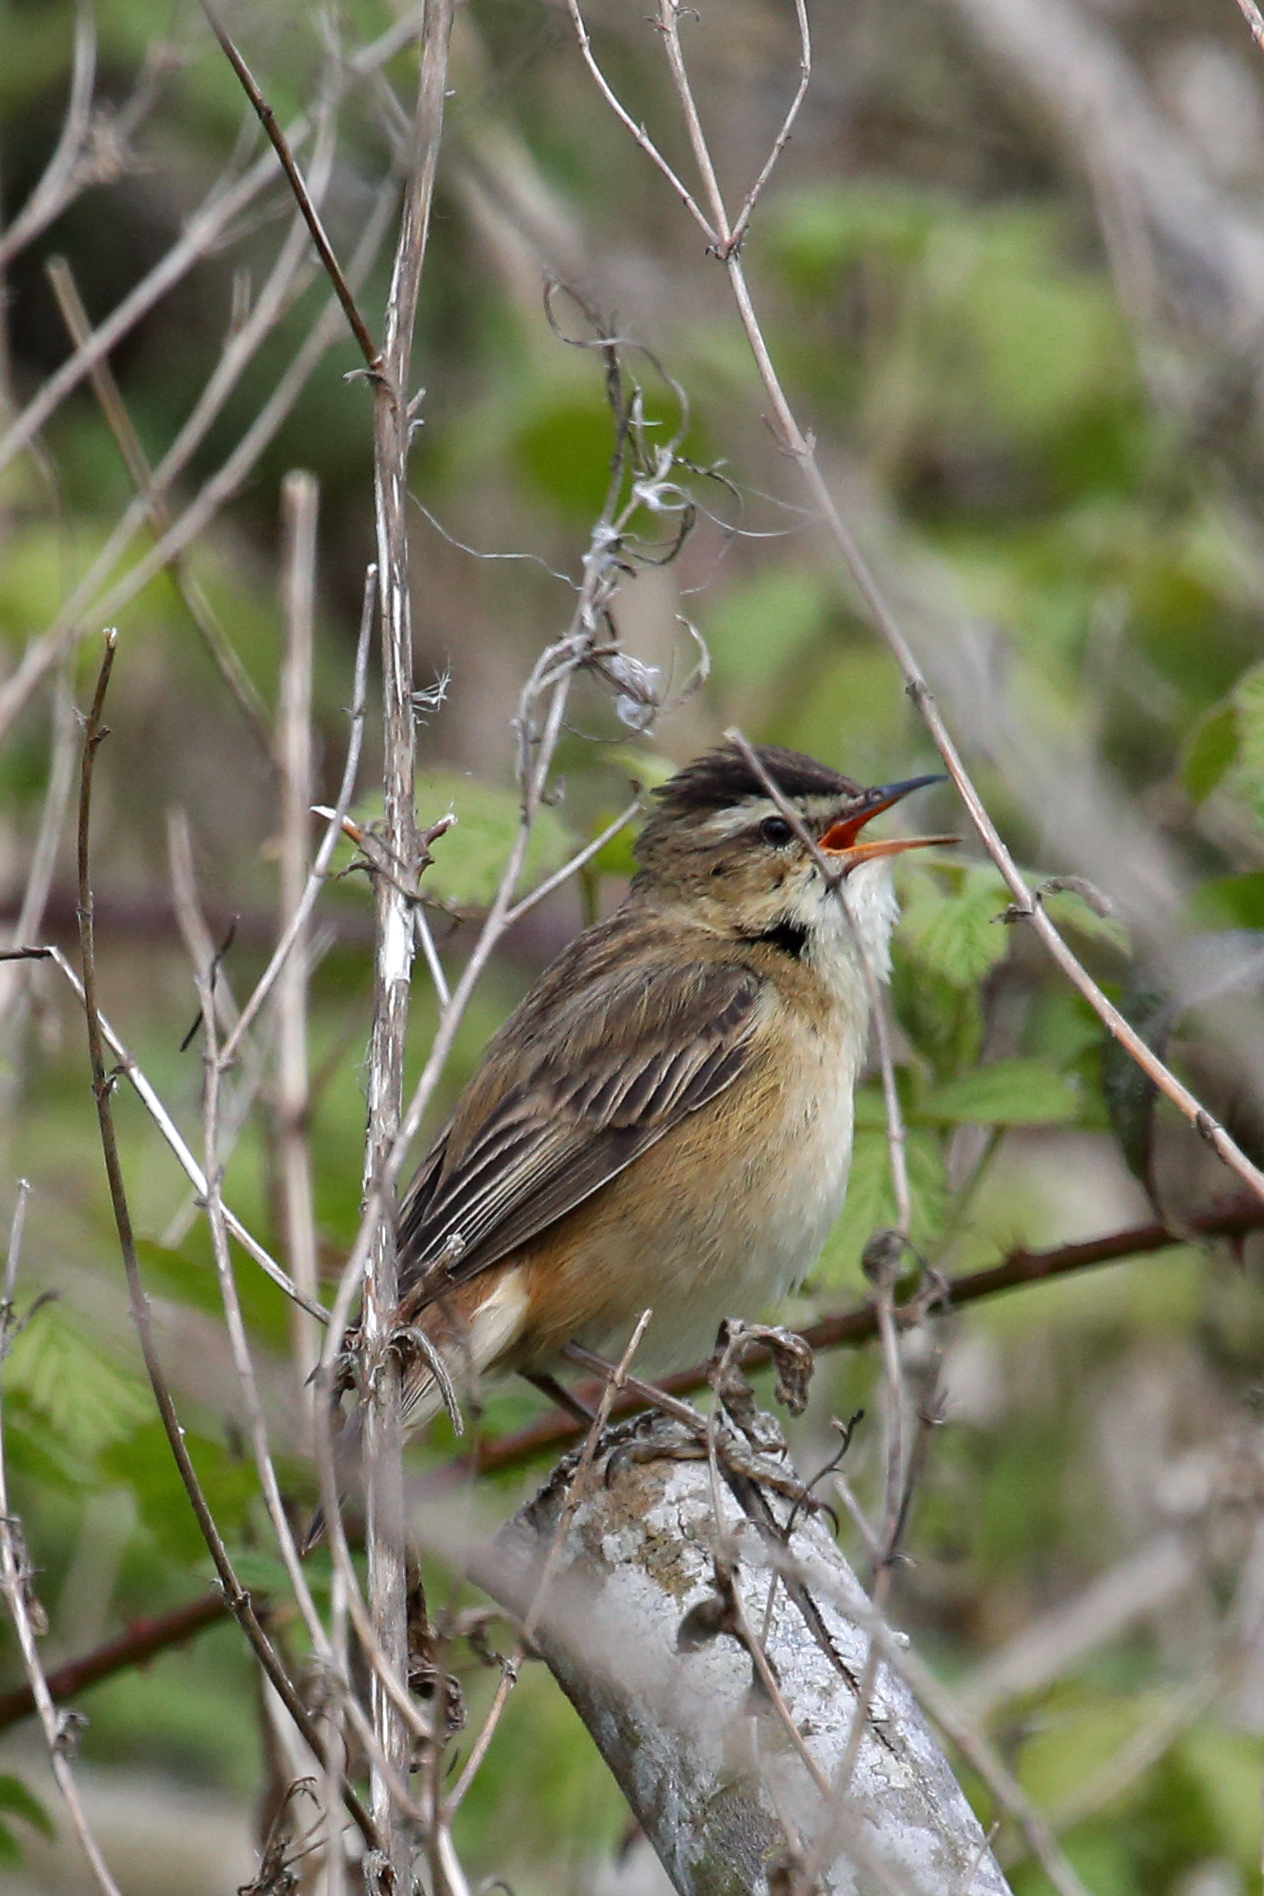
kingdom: Animalia
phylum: Chordata
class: Aves
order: Passeriformes
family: Acrocephalidae
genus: Acrocephalus
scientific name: Acrocephalus schoenobaenus
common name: Sedge warbler
